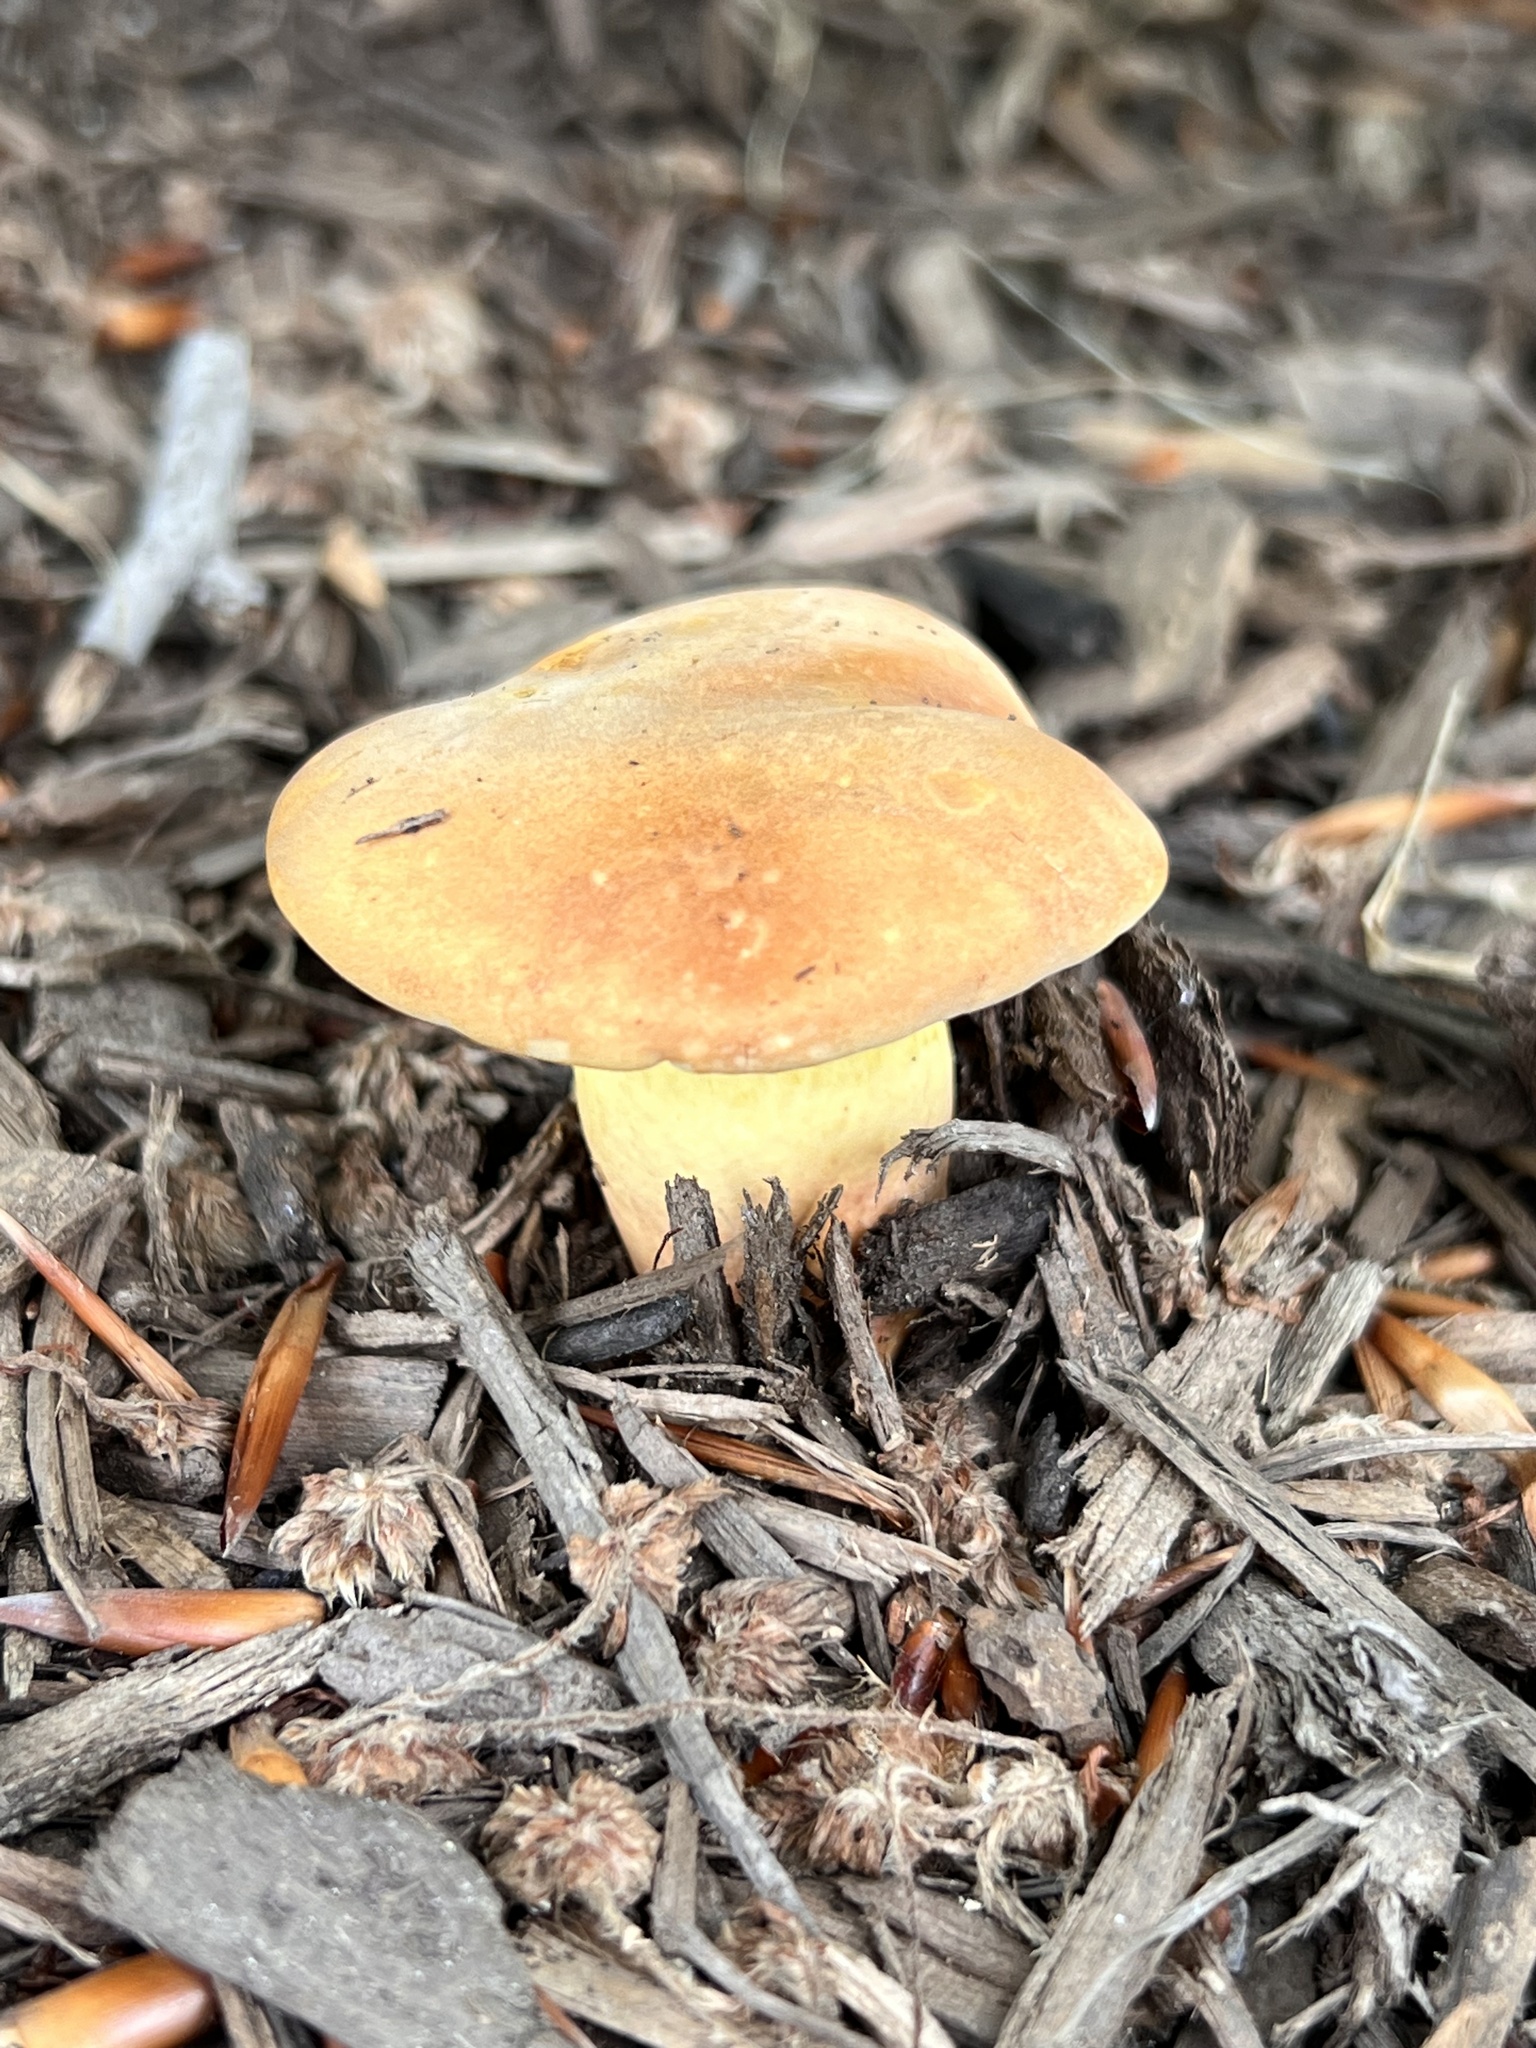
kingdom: Fungi
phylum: Basidiomycota
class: Agaricomycetes
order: Boletales
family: Boletaceae
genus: Lanmaoa
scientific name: Lanmaoa pseudosensibilis
